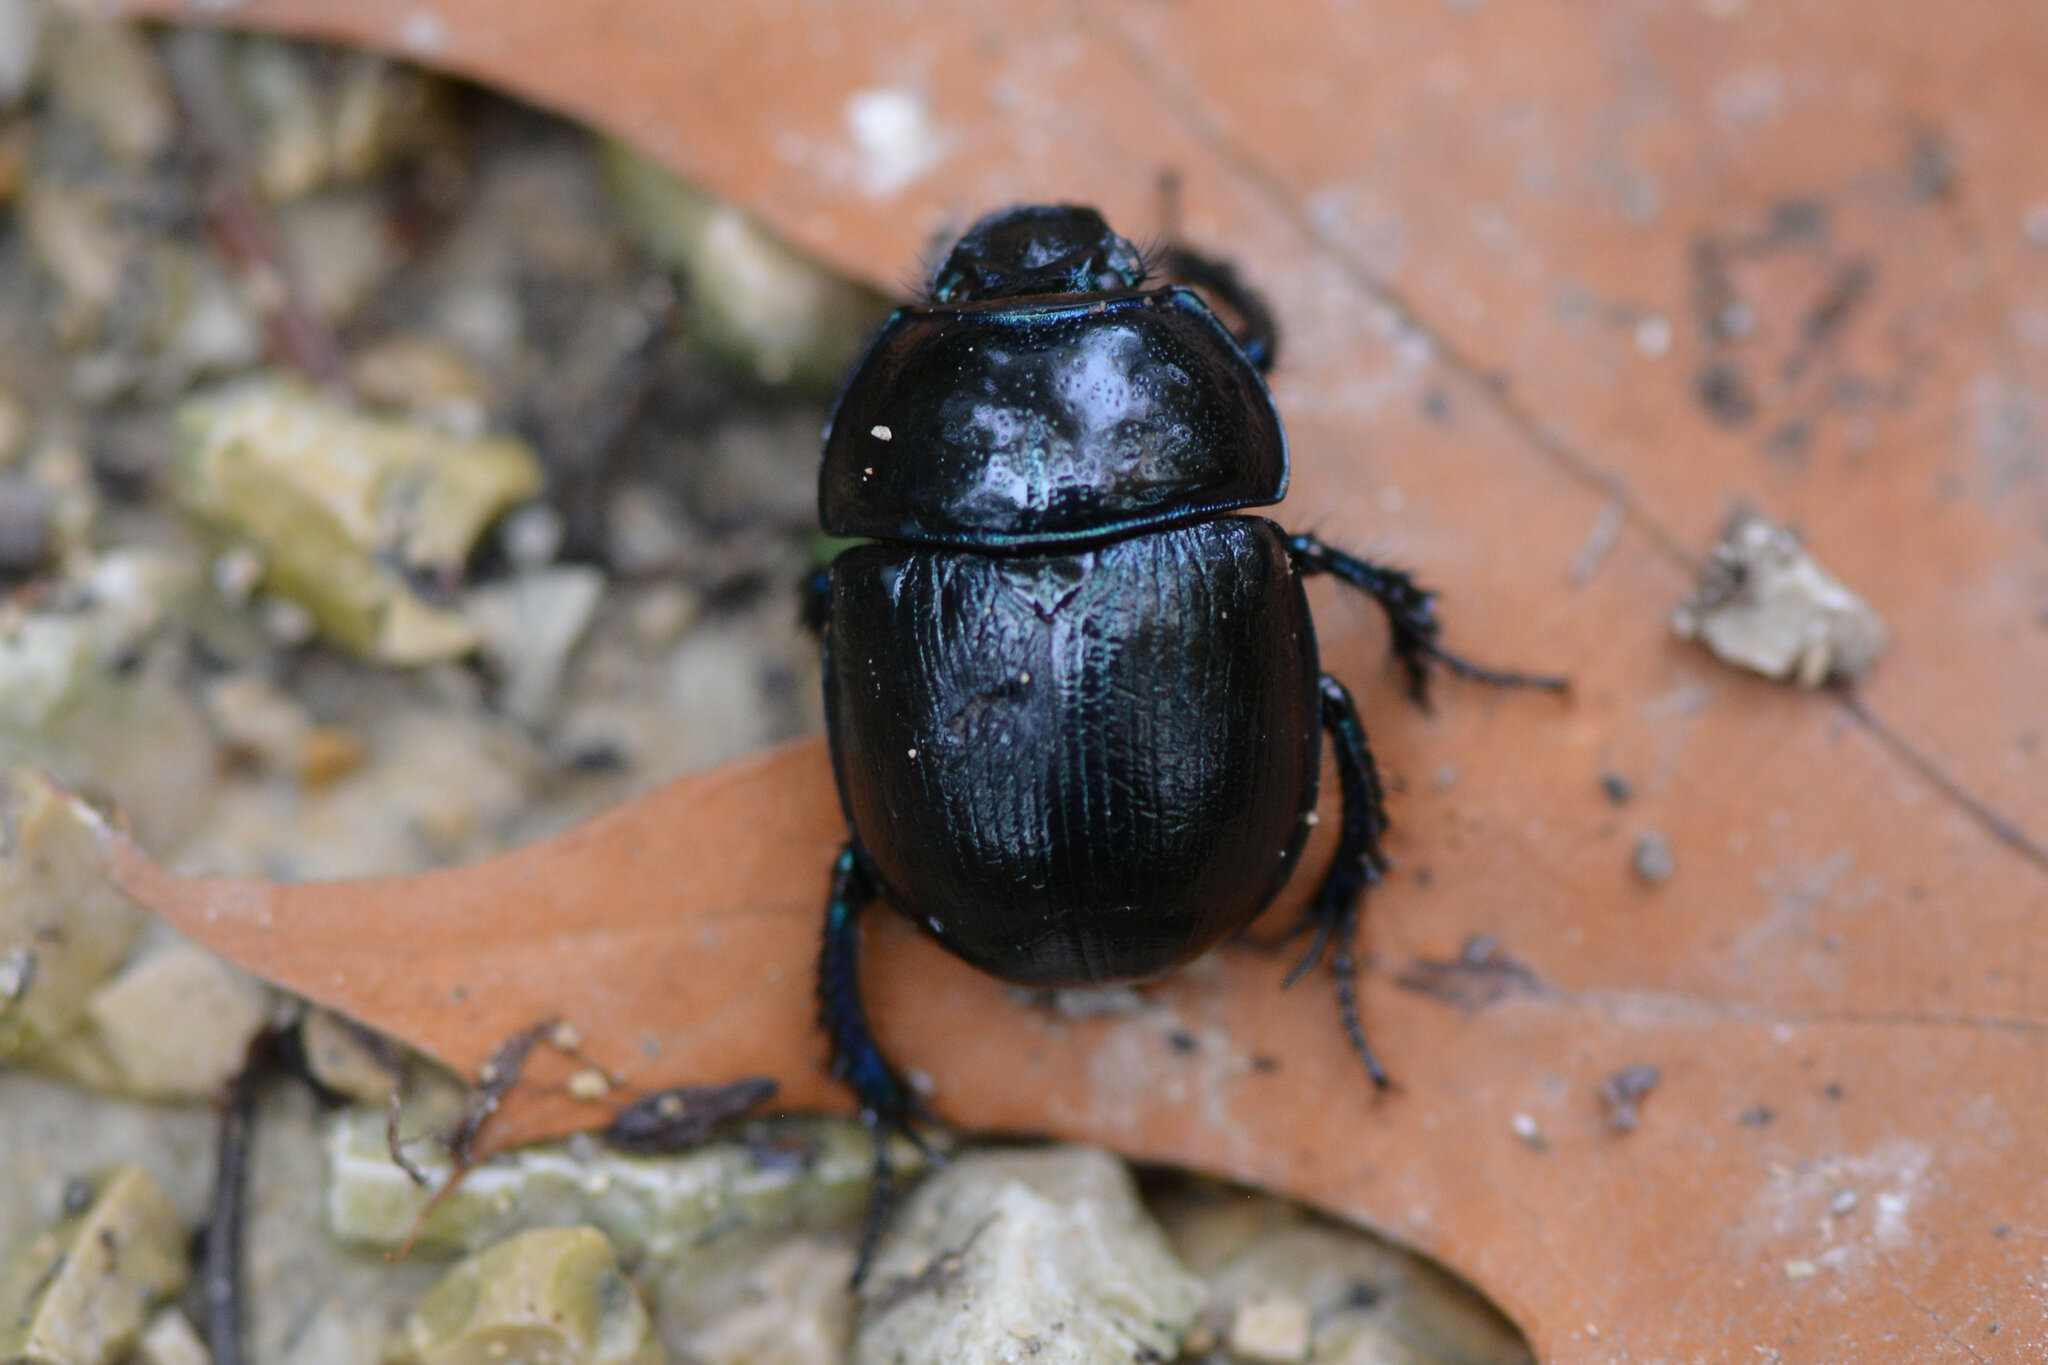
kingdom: Animalia
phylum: Arthropoda
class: Insecta
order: Coleoptera
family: Geotrupidae
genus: Anoplotrupes
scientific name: Anoplotrupes stercorosus
